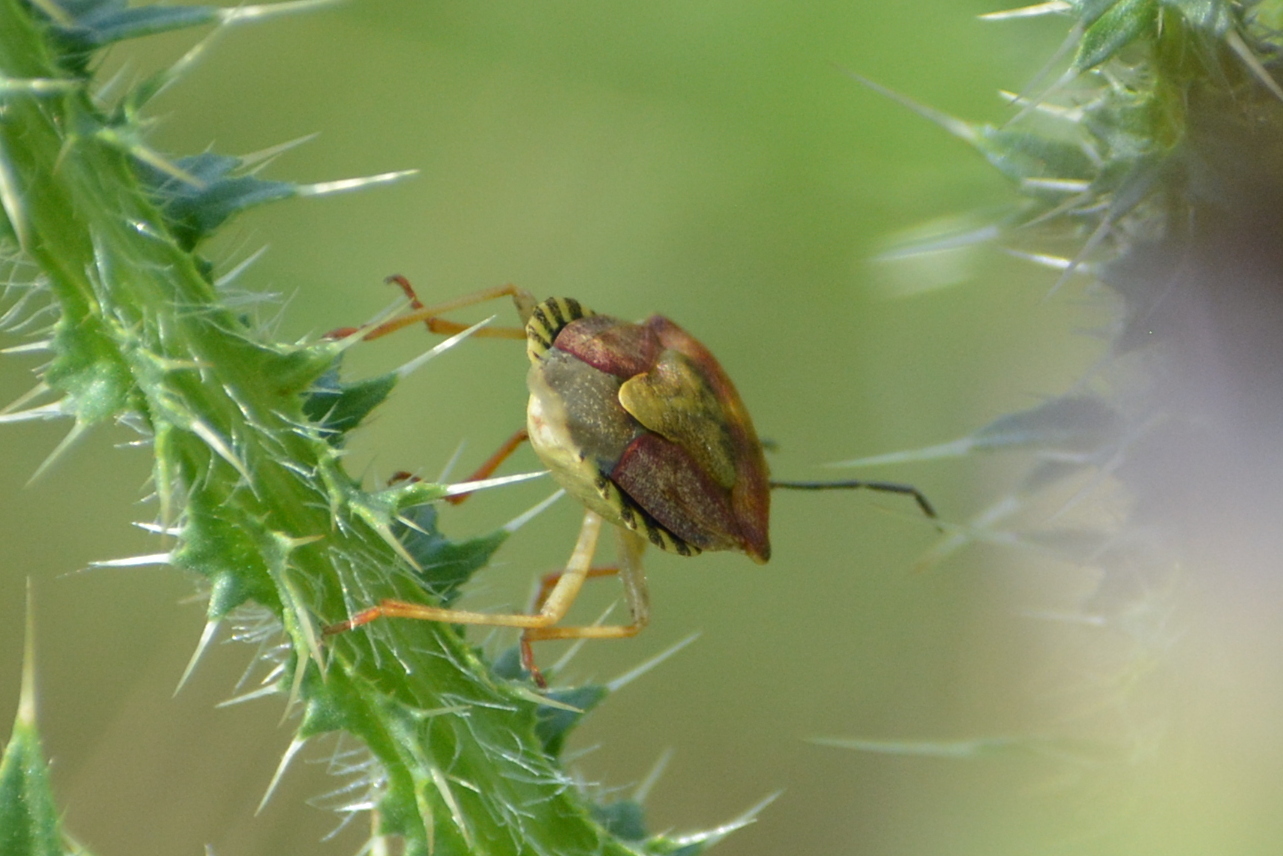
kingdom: Animalia
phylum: Arthropoda
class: Insecta
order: Hemiptera
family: Pentatomidae
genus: Carpocoris
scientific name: Carpocoris purpureipennis
